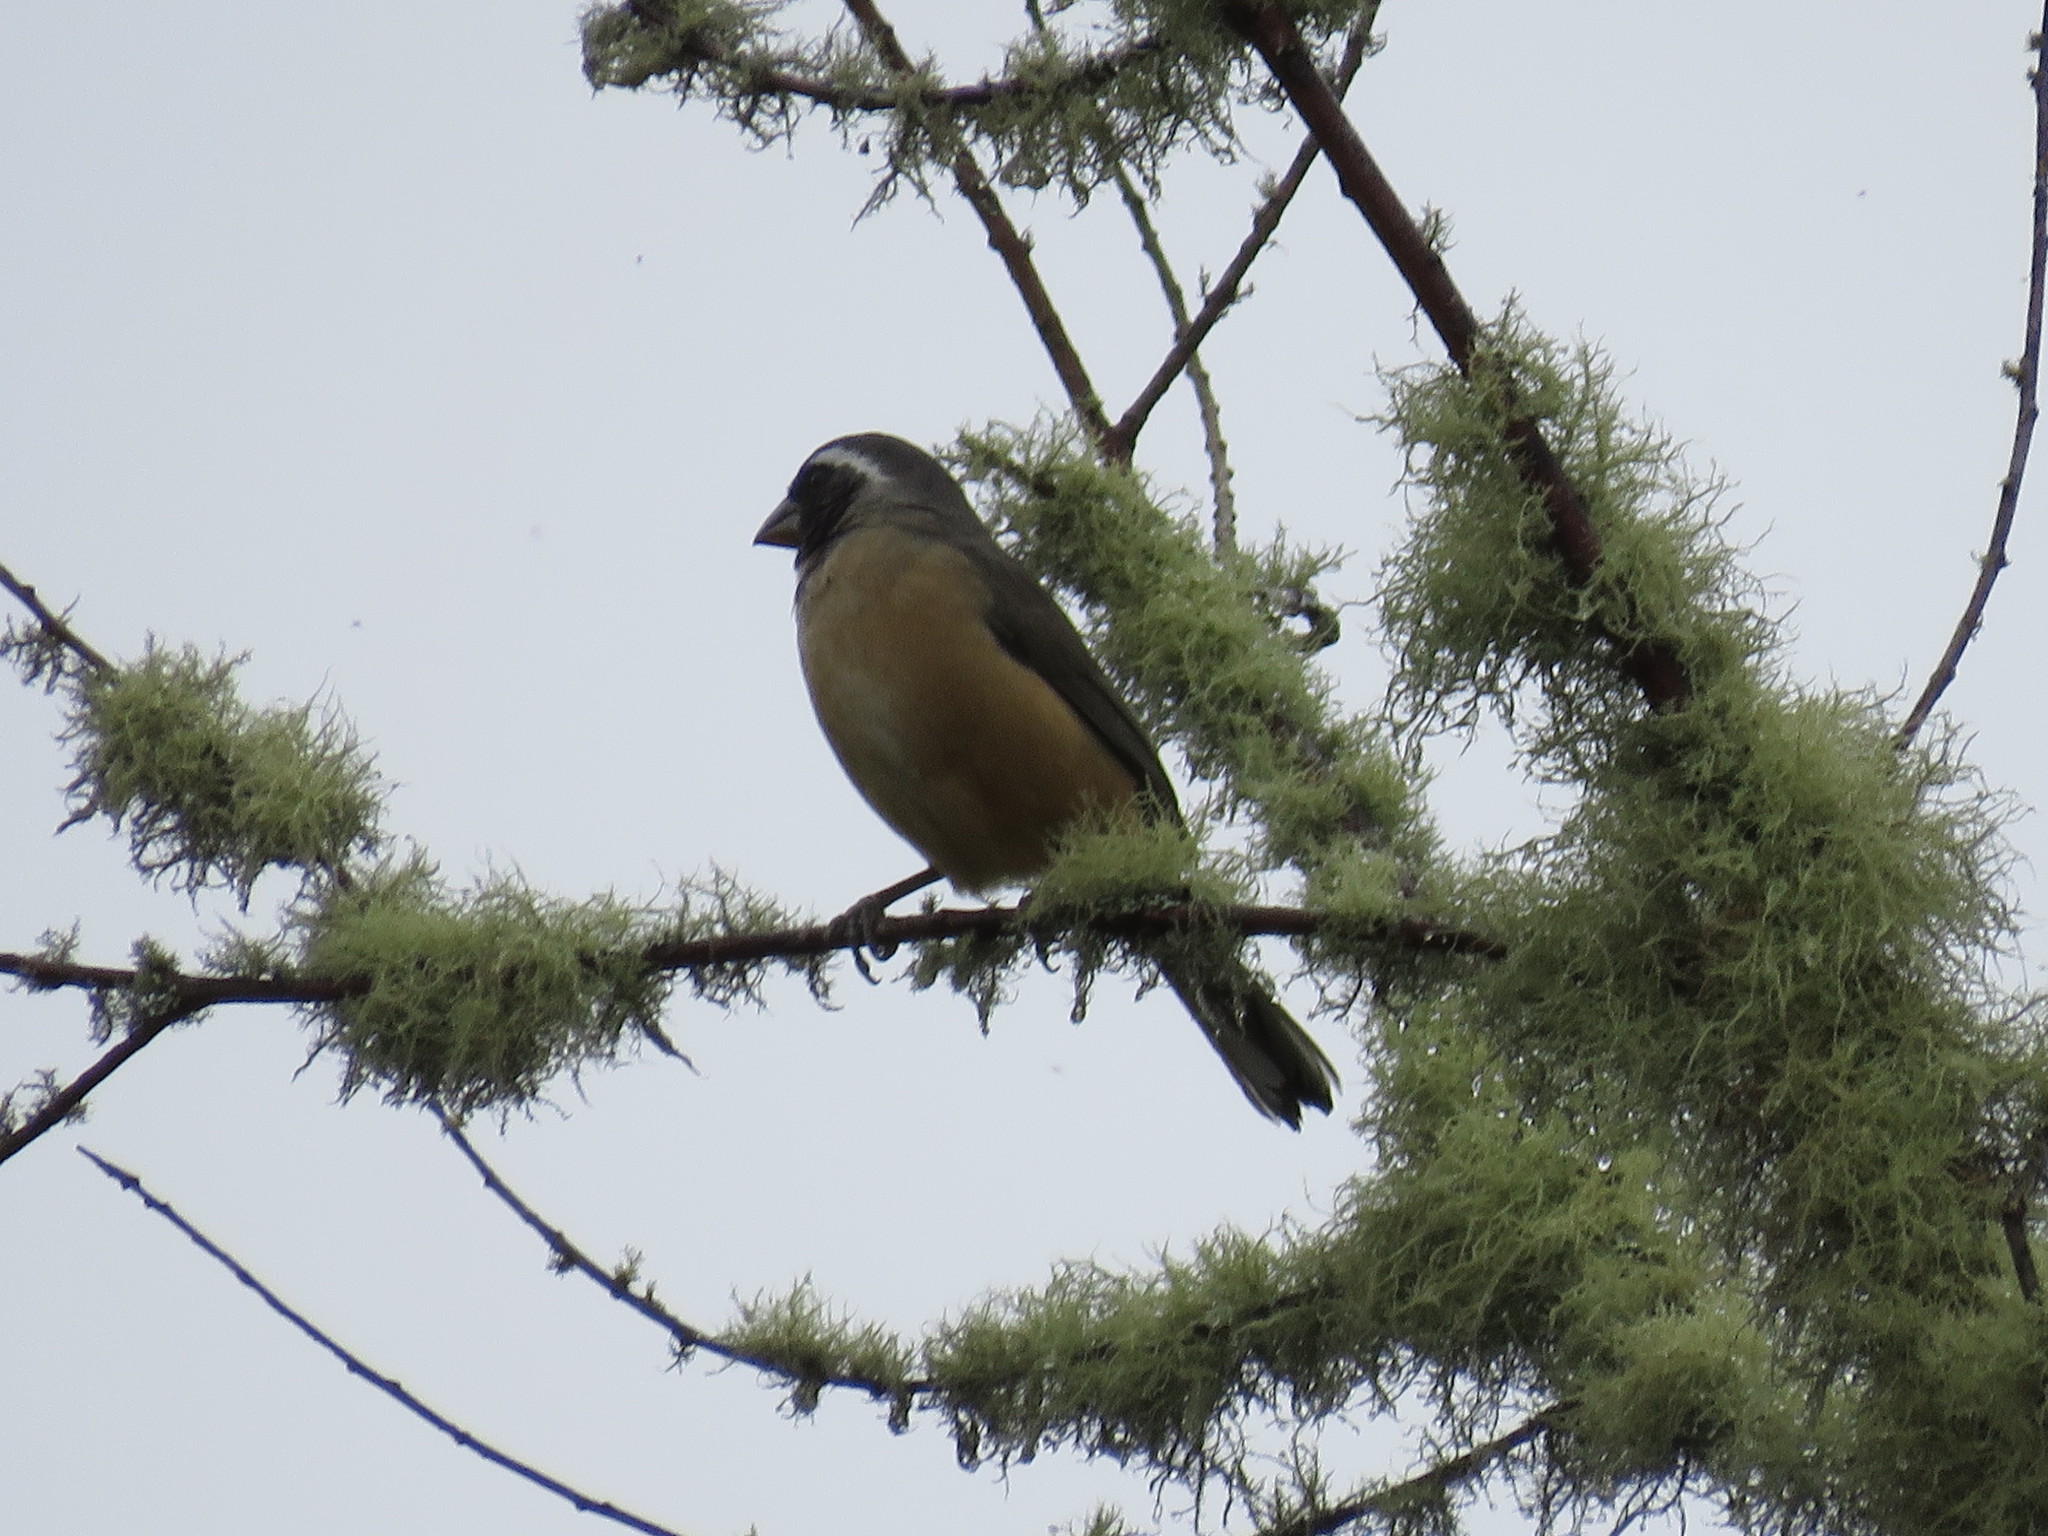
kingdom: Animalia
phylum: Chordata
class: Aves
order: Passeriformes
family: Thraupidae
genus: Saltator
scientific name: Saltator aurantiirostris
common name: Golden-billed saltator
